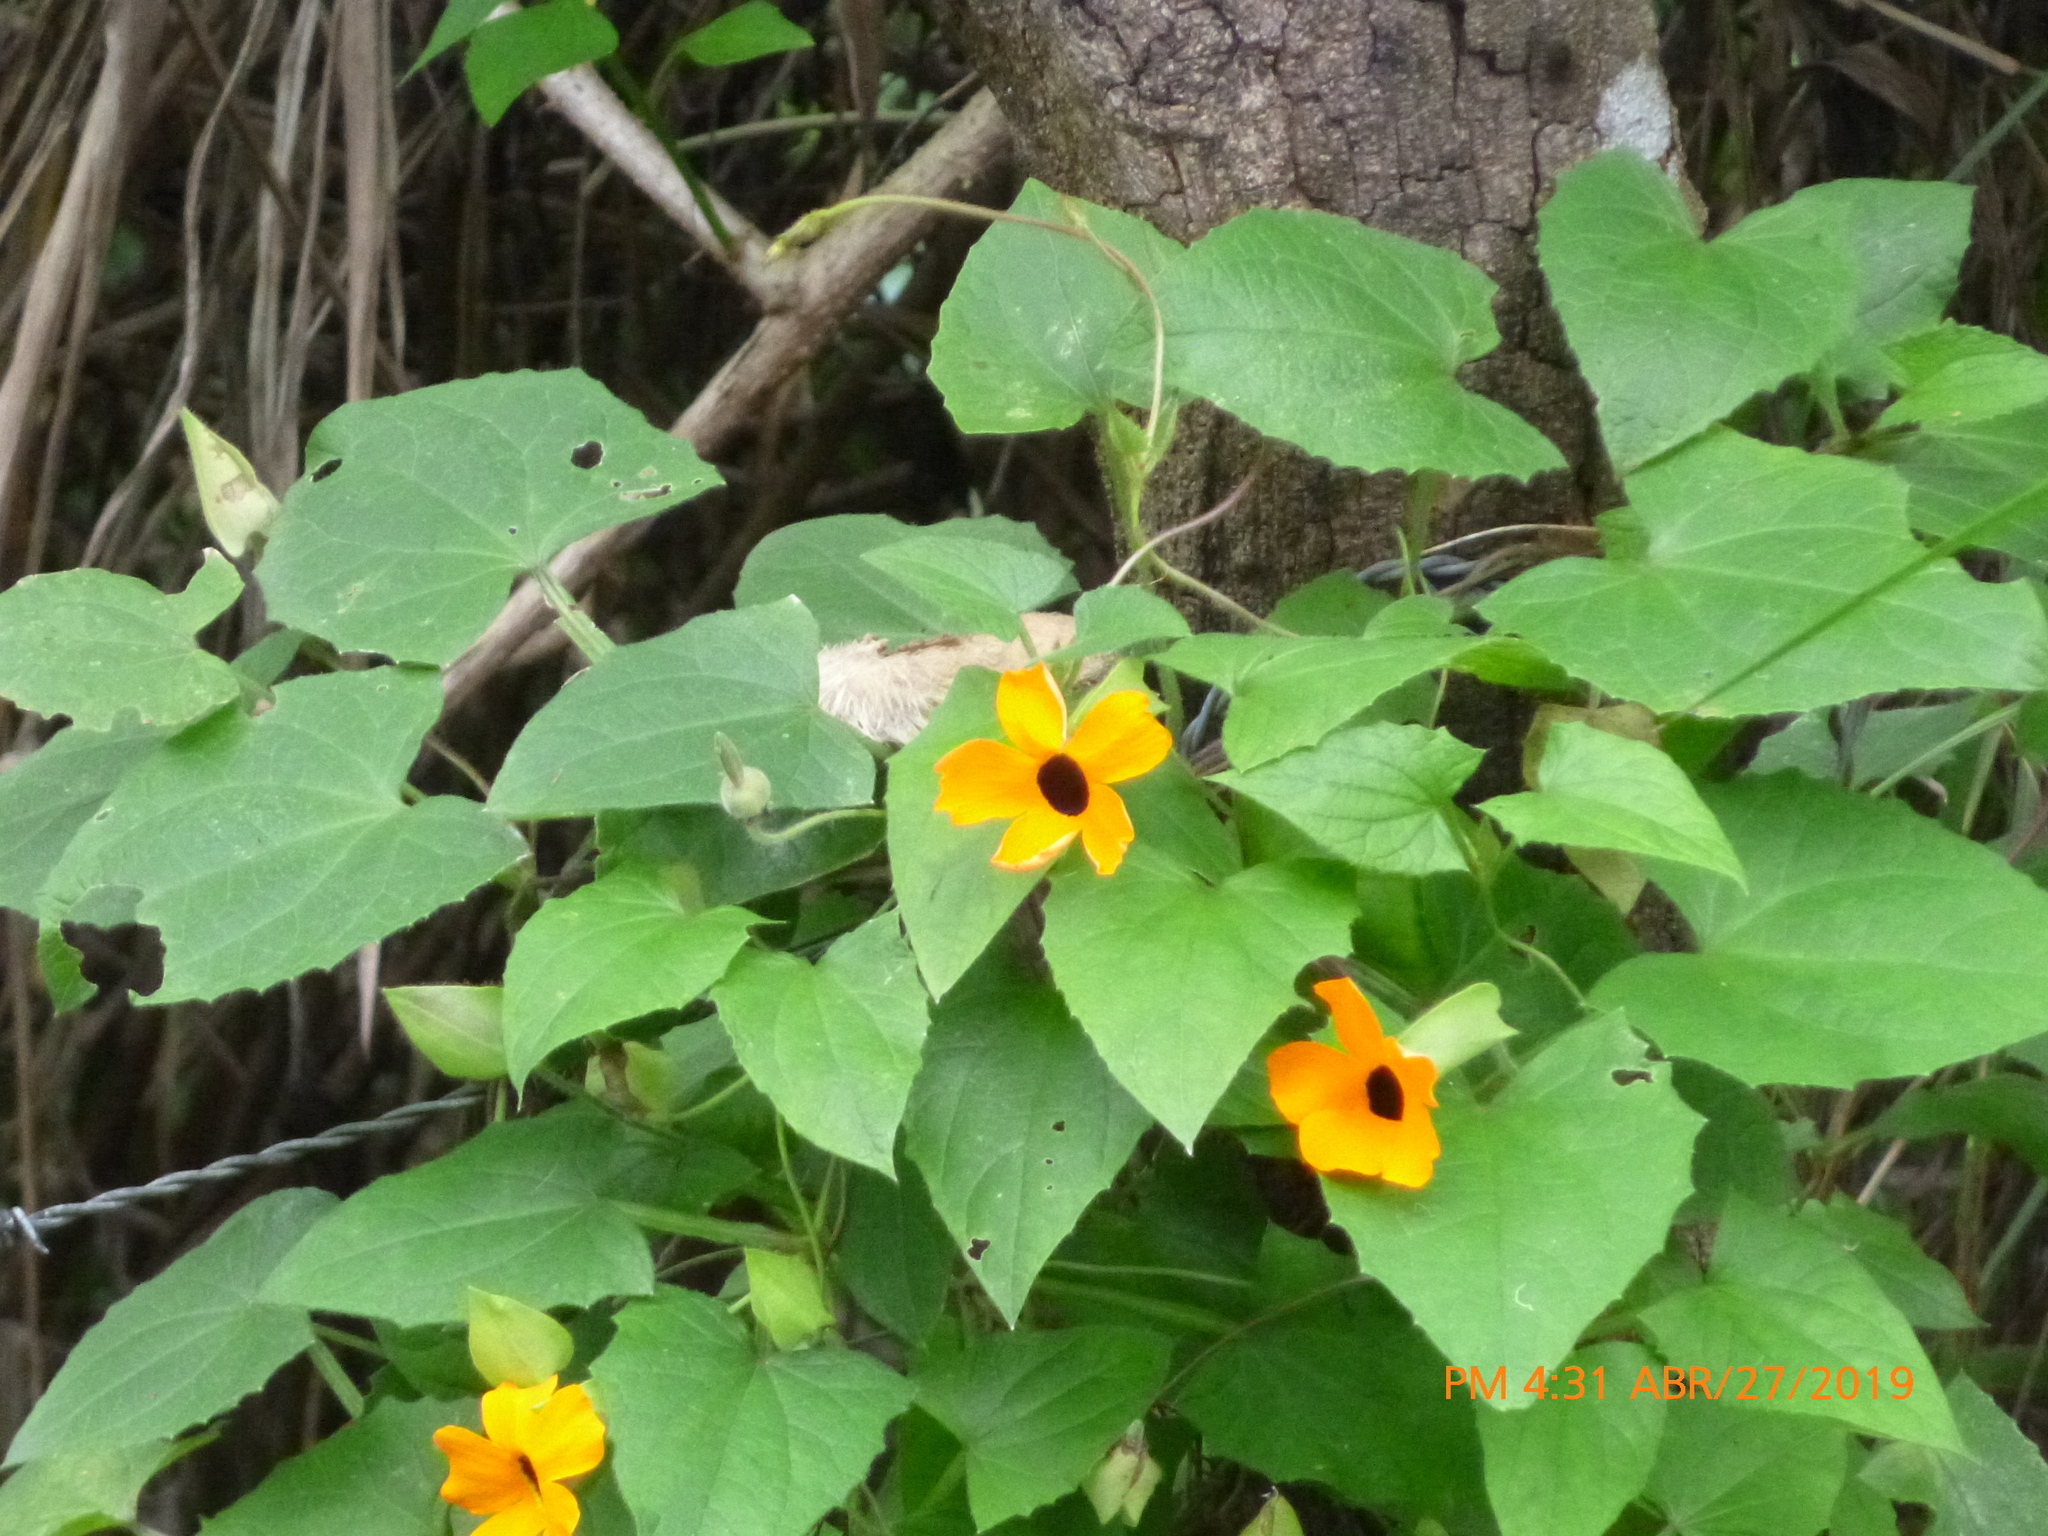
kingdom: Plantae
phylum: Tracheophyta
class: Magnoliopsida
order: Lamiales
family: Acanthaceae
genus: Thunbergia
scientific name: Thunbergia alata
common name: Blackeyed susan vine
